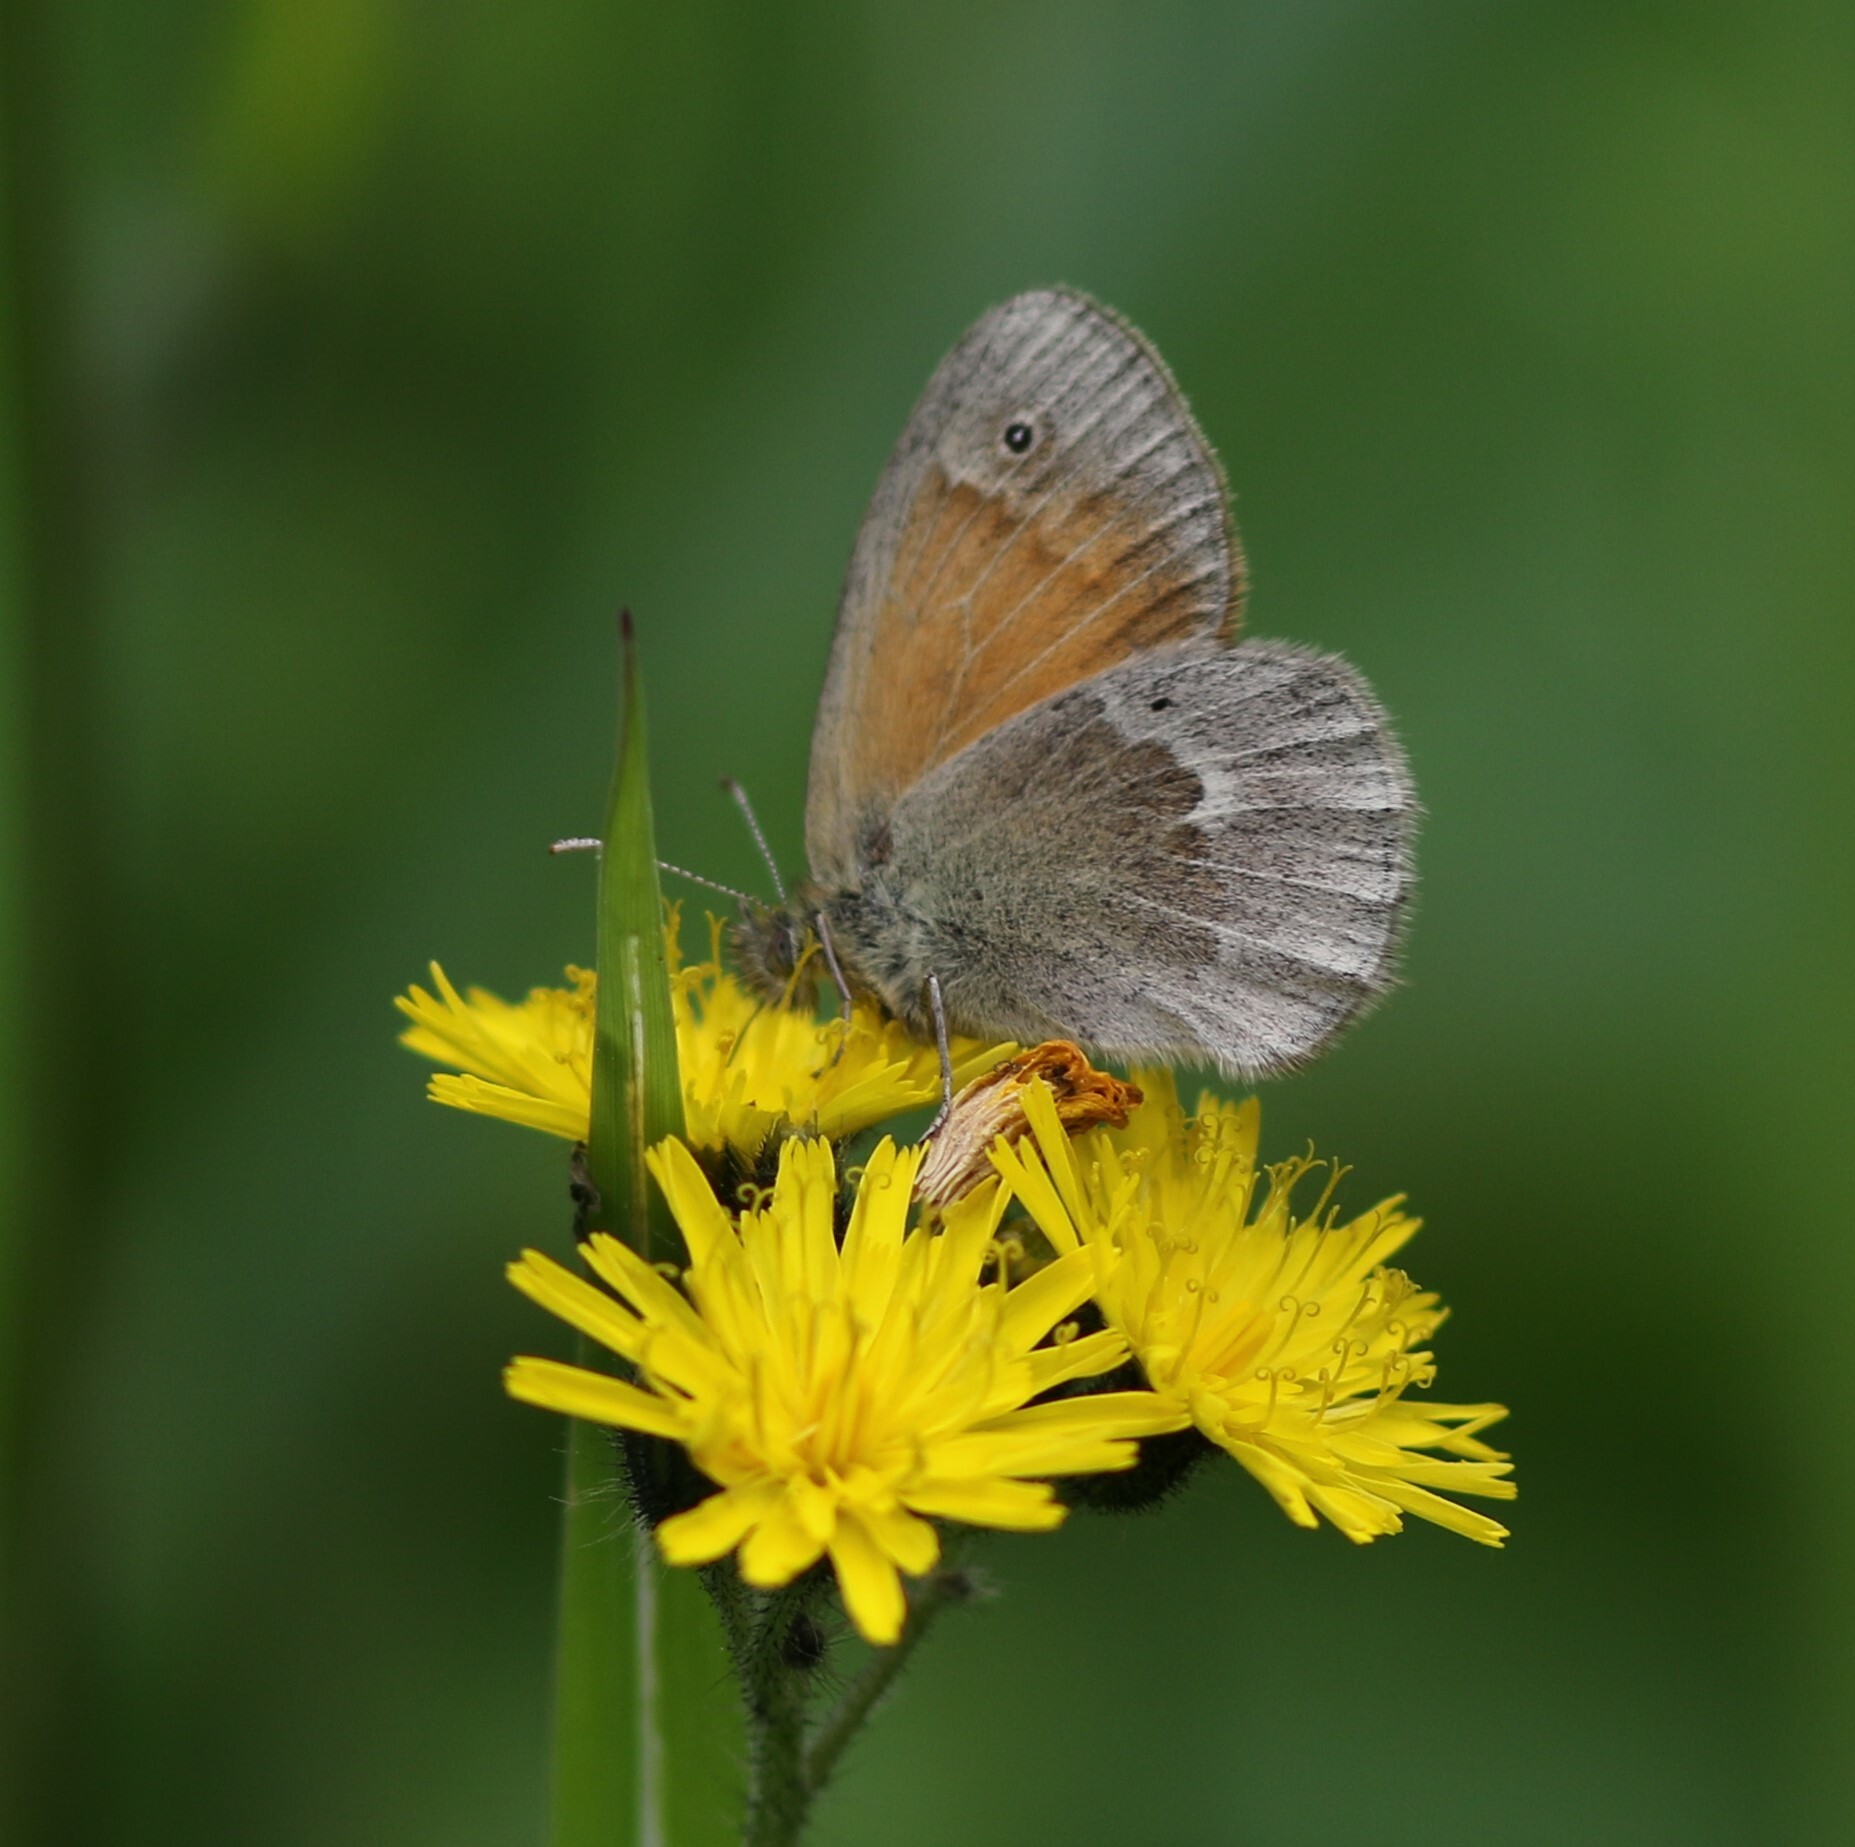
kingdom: Animalia
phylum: Arthropoda
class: Insecta
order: Lepidoptera
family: Nymphalidae
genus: Coenonympha
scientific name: Coenonympha california
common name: Common ringlet
